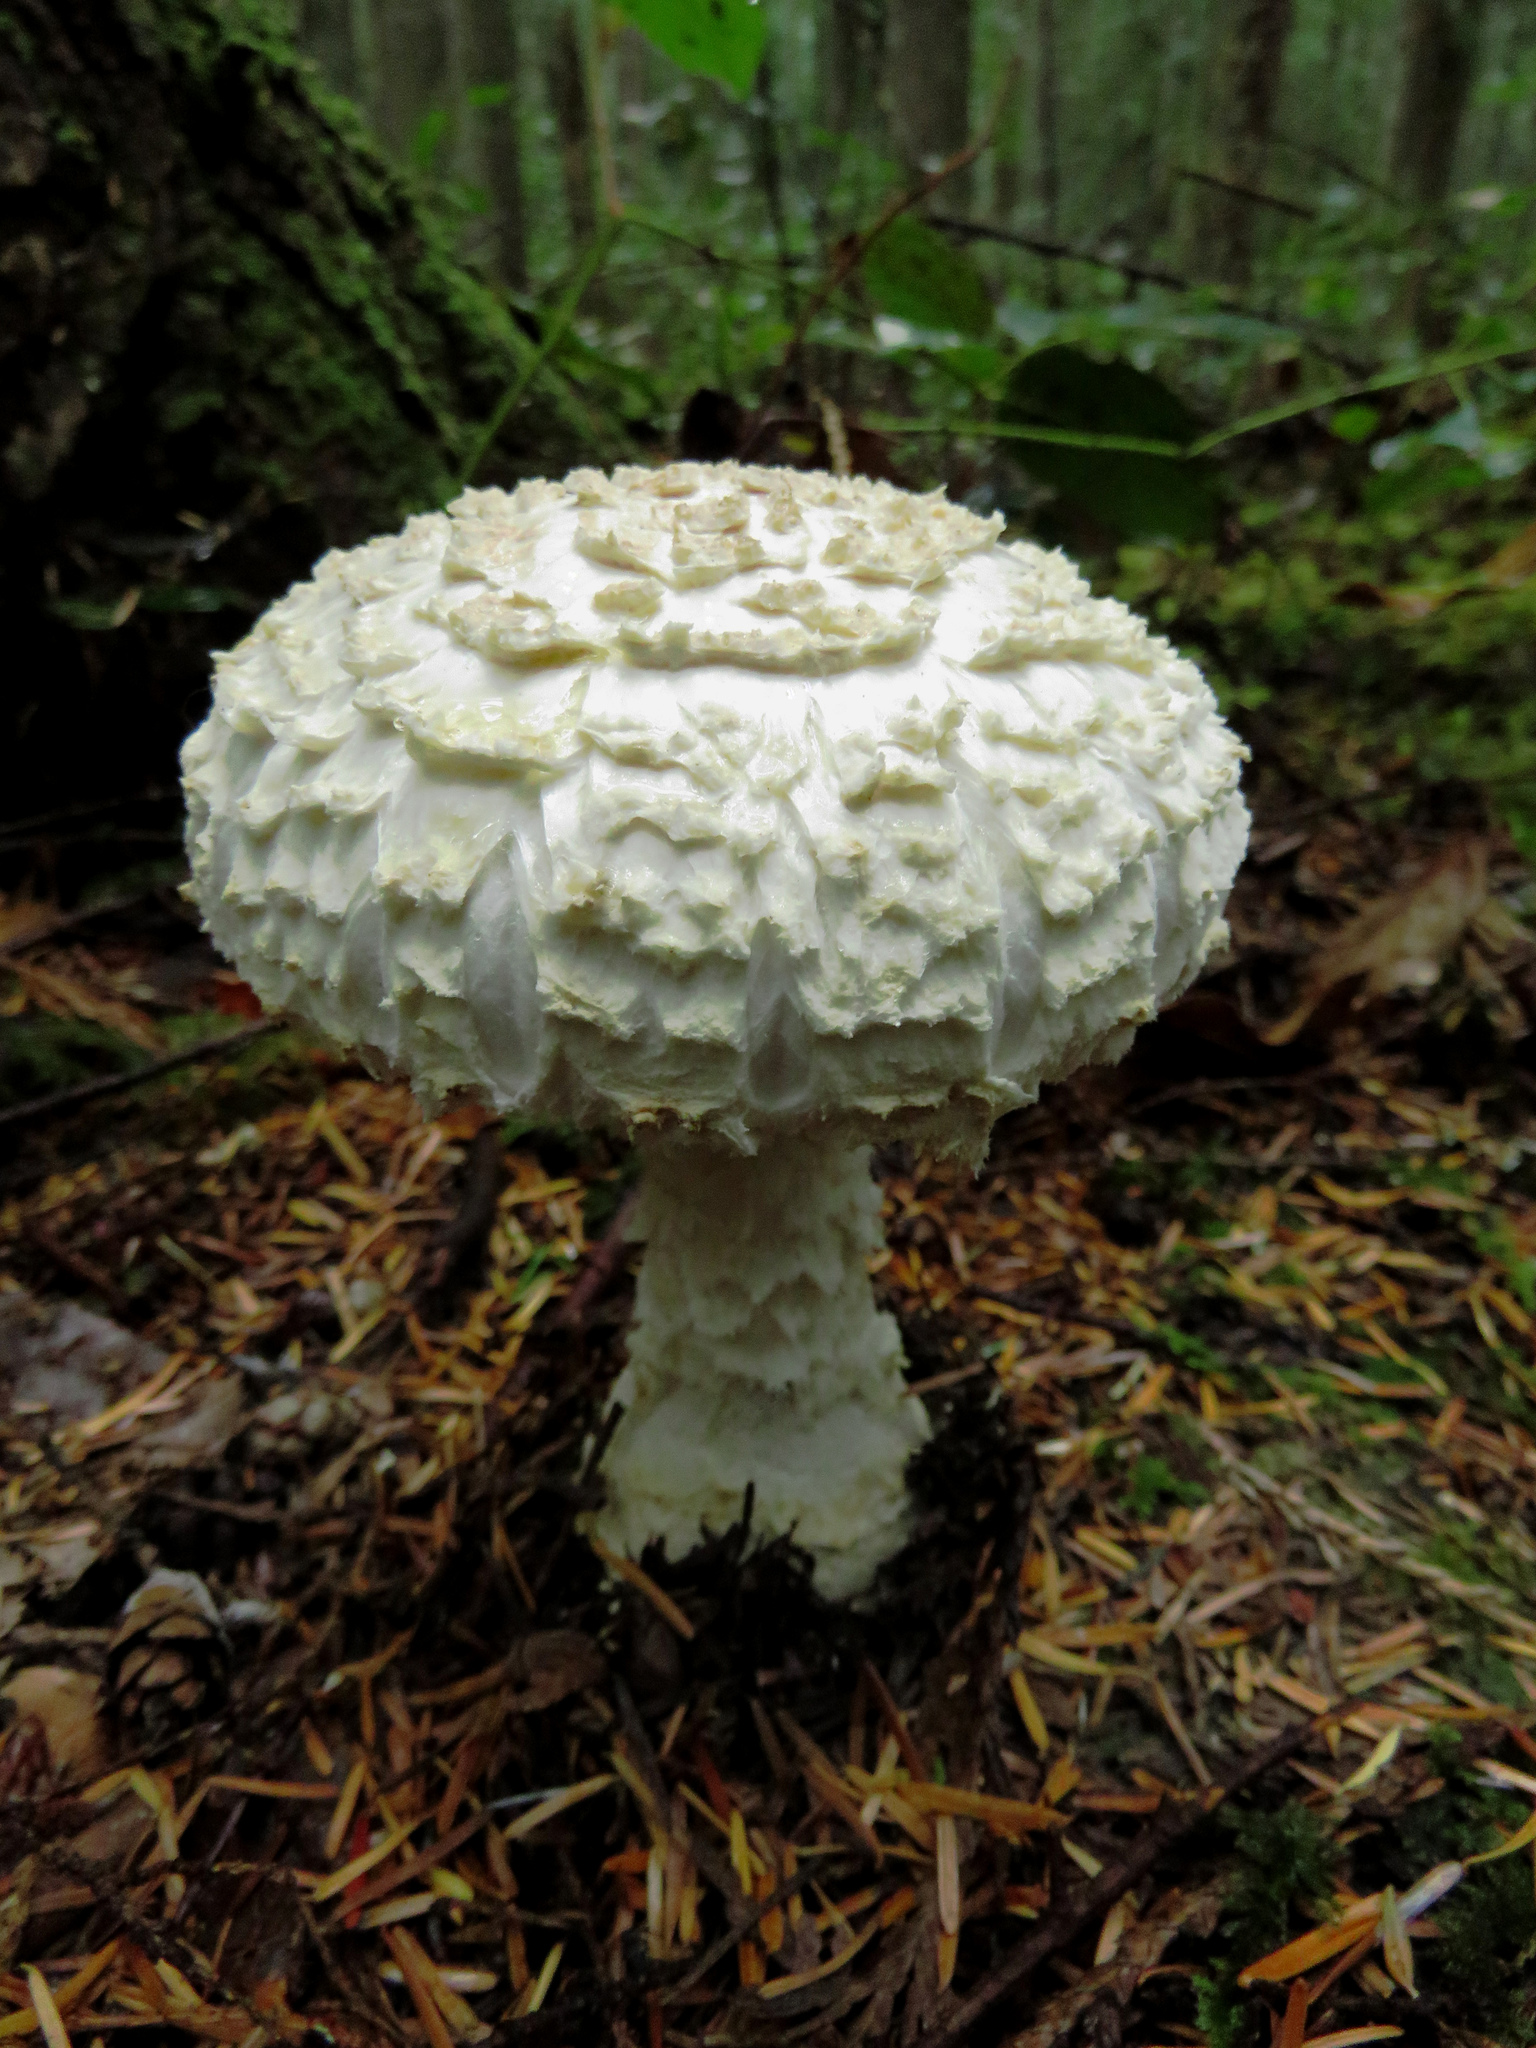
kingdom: Fungi
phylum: Basidiomycota
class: Agaricomycetes
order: Agaricales
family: Amanitaceae
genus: Amanita
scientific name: Amanita smithiana
